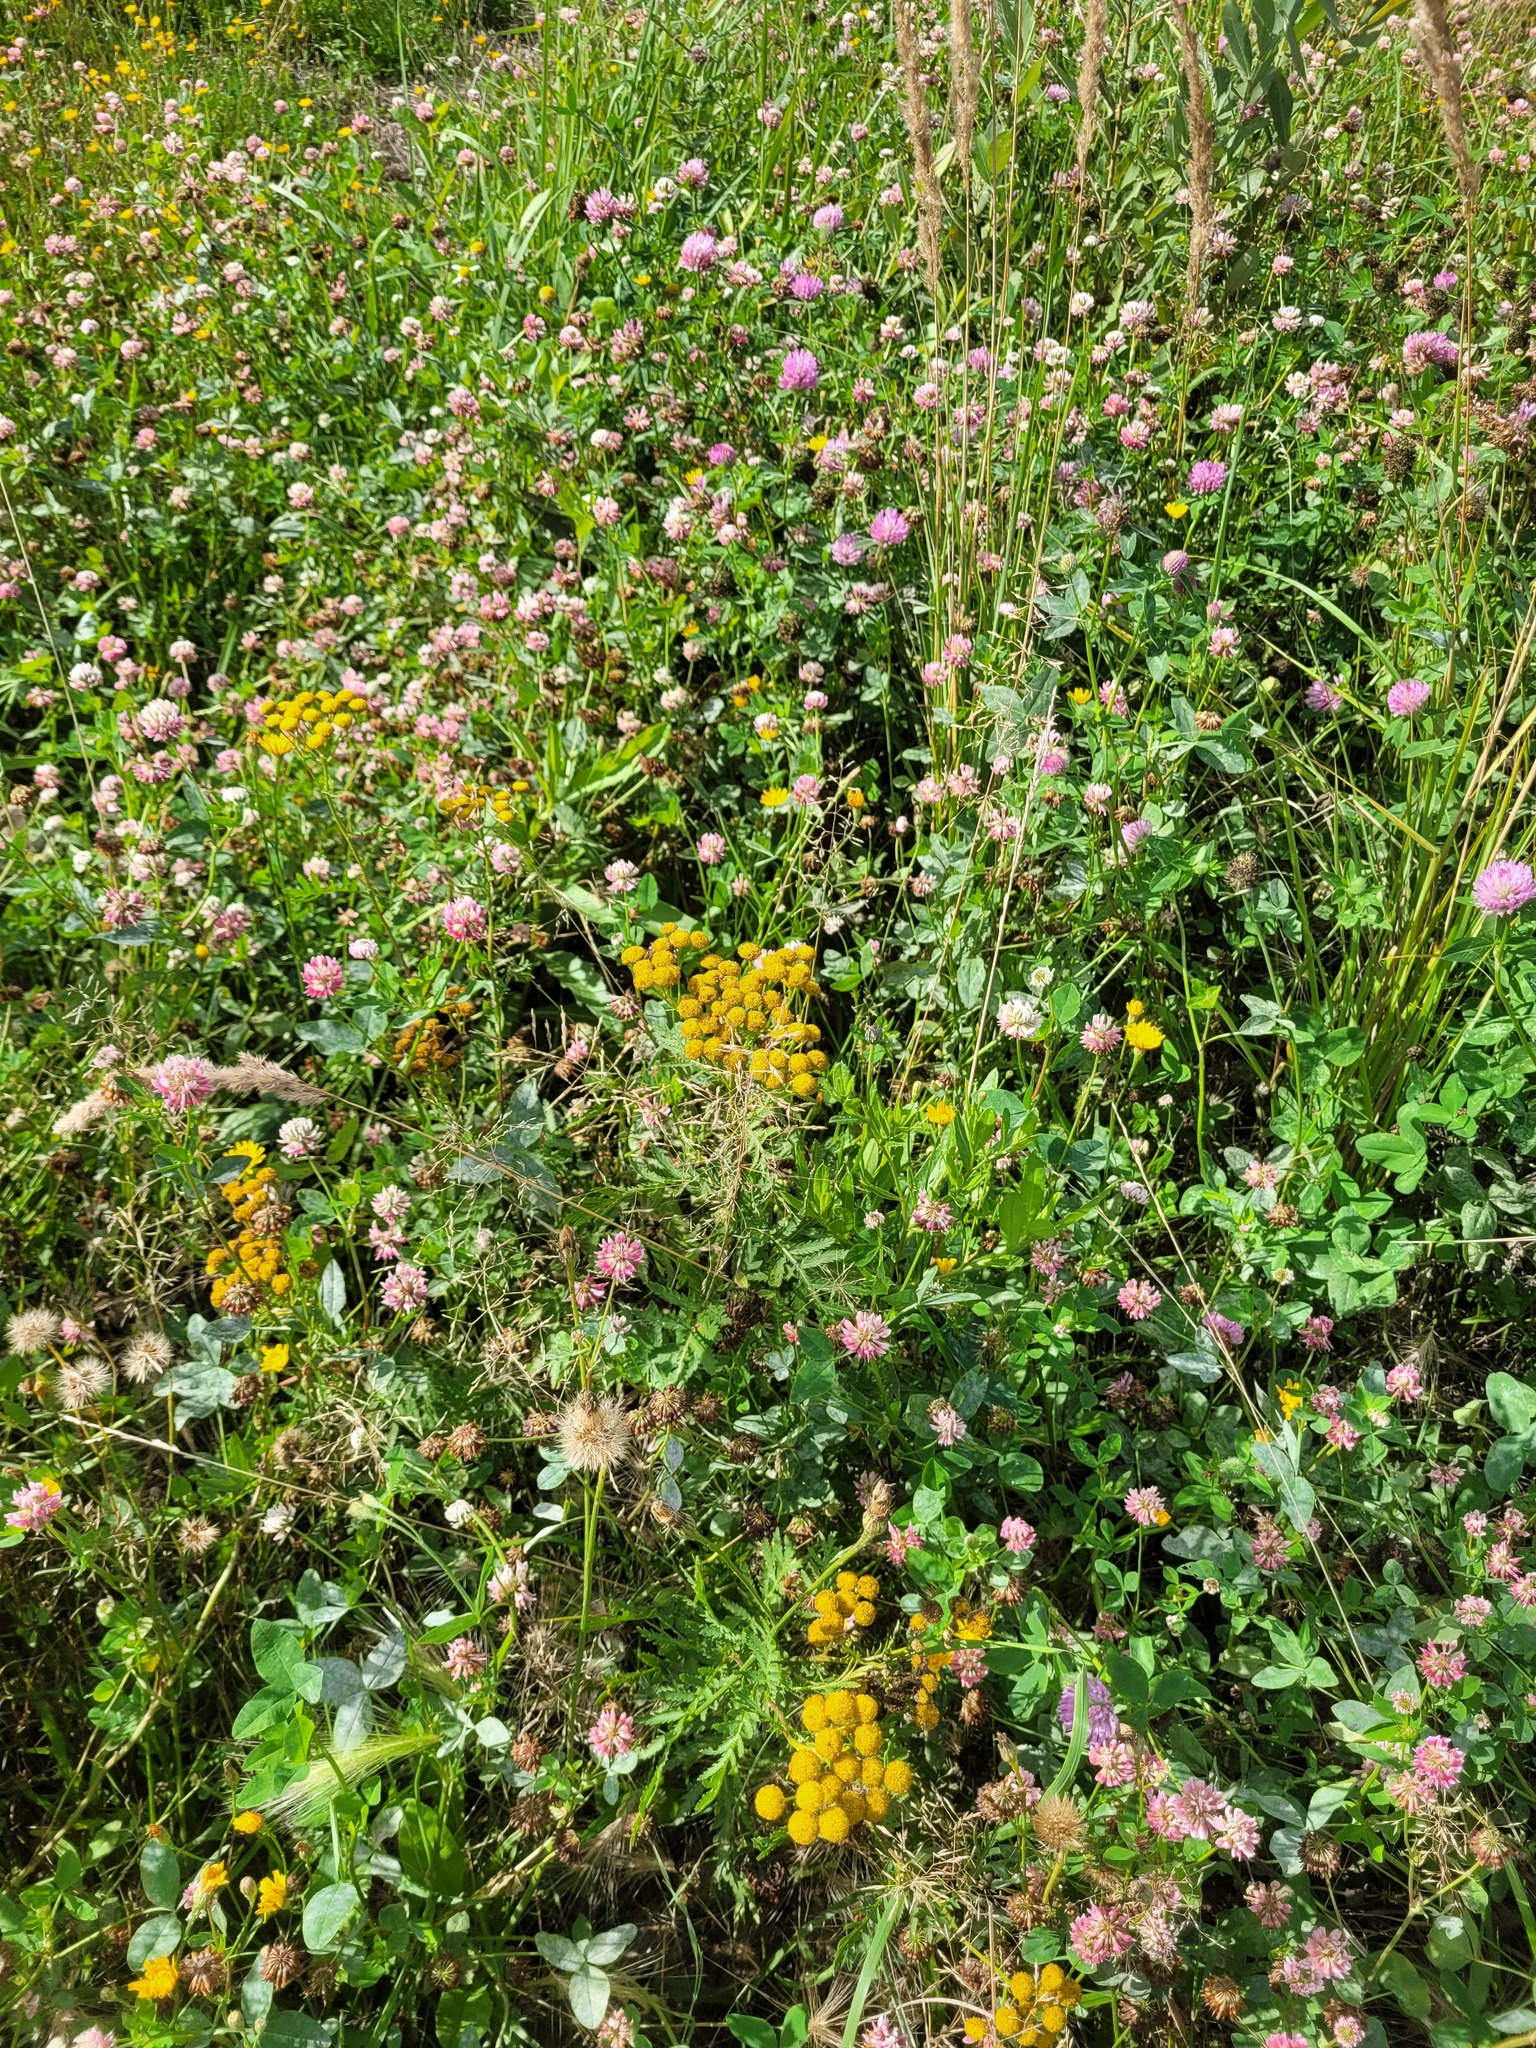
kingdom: Plantae
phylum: Tracheophyta
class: Magnoliopsida
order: Asterales
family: Asteraceae
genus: Tanacetum
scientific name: Tanacetum vulgare
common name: Common tansy
